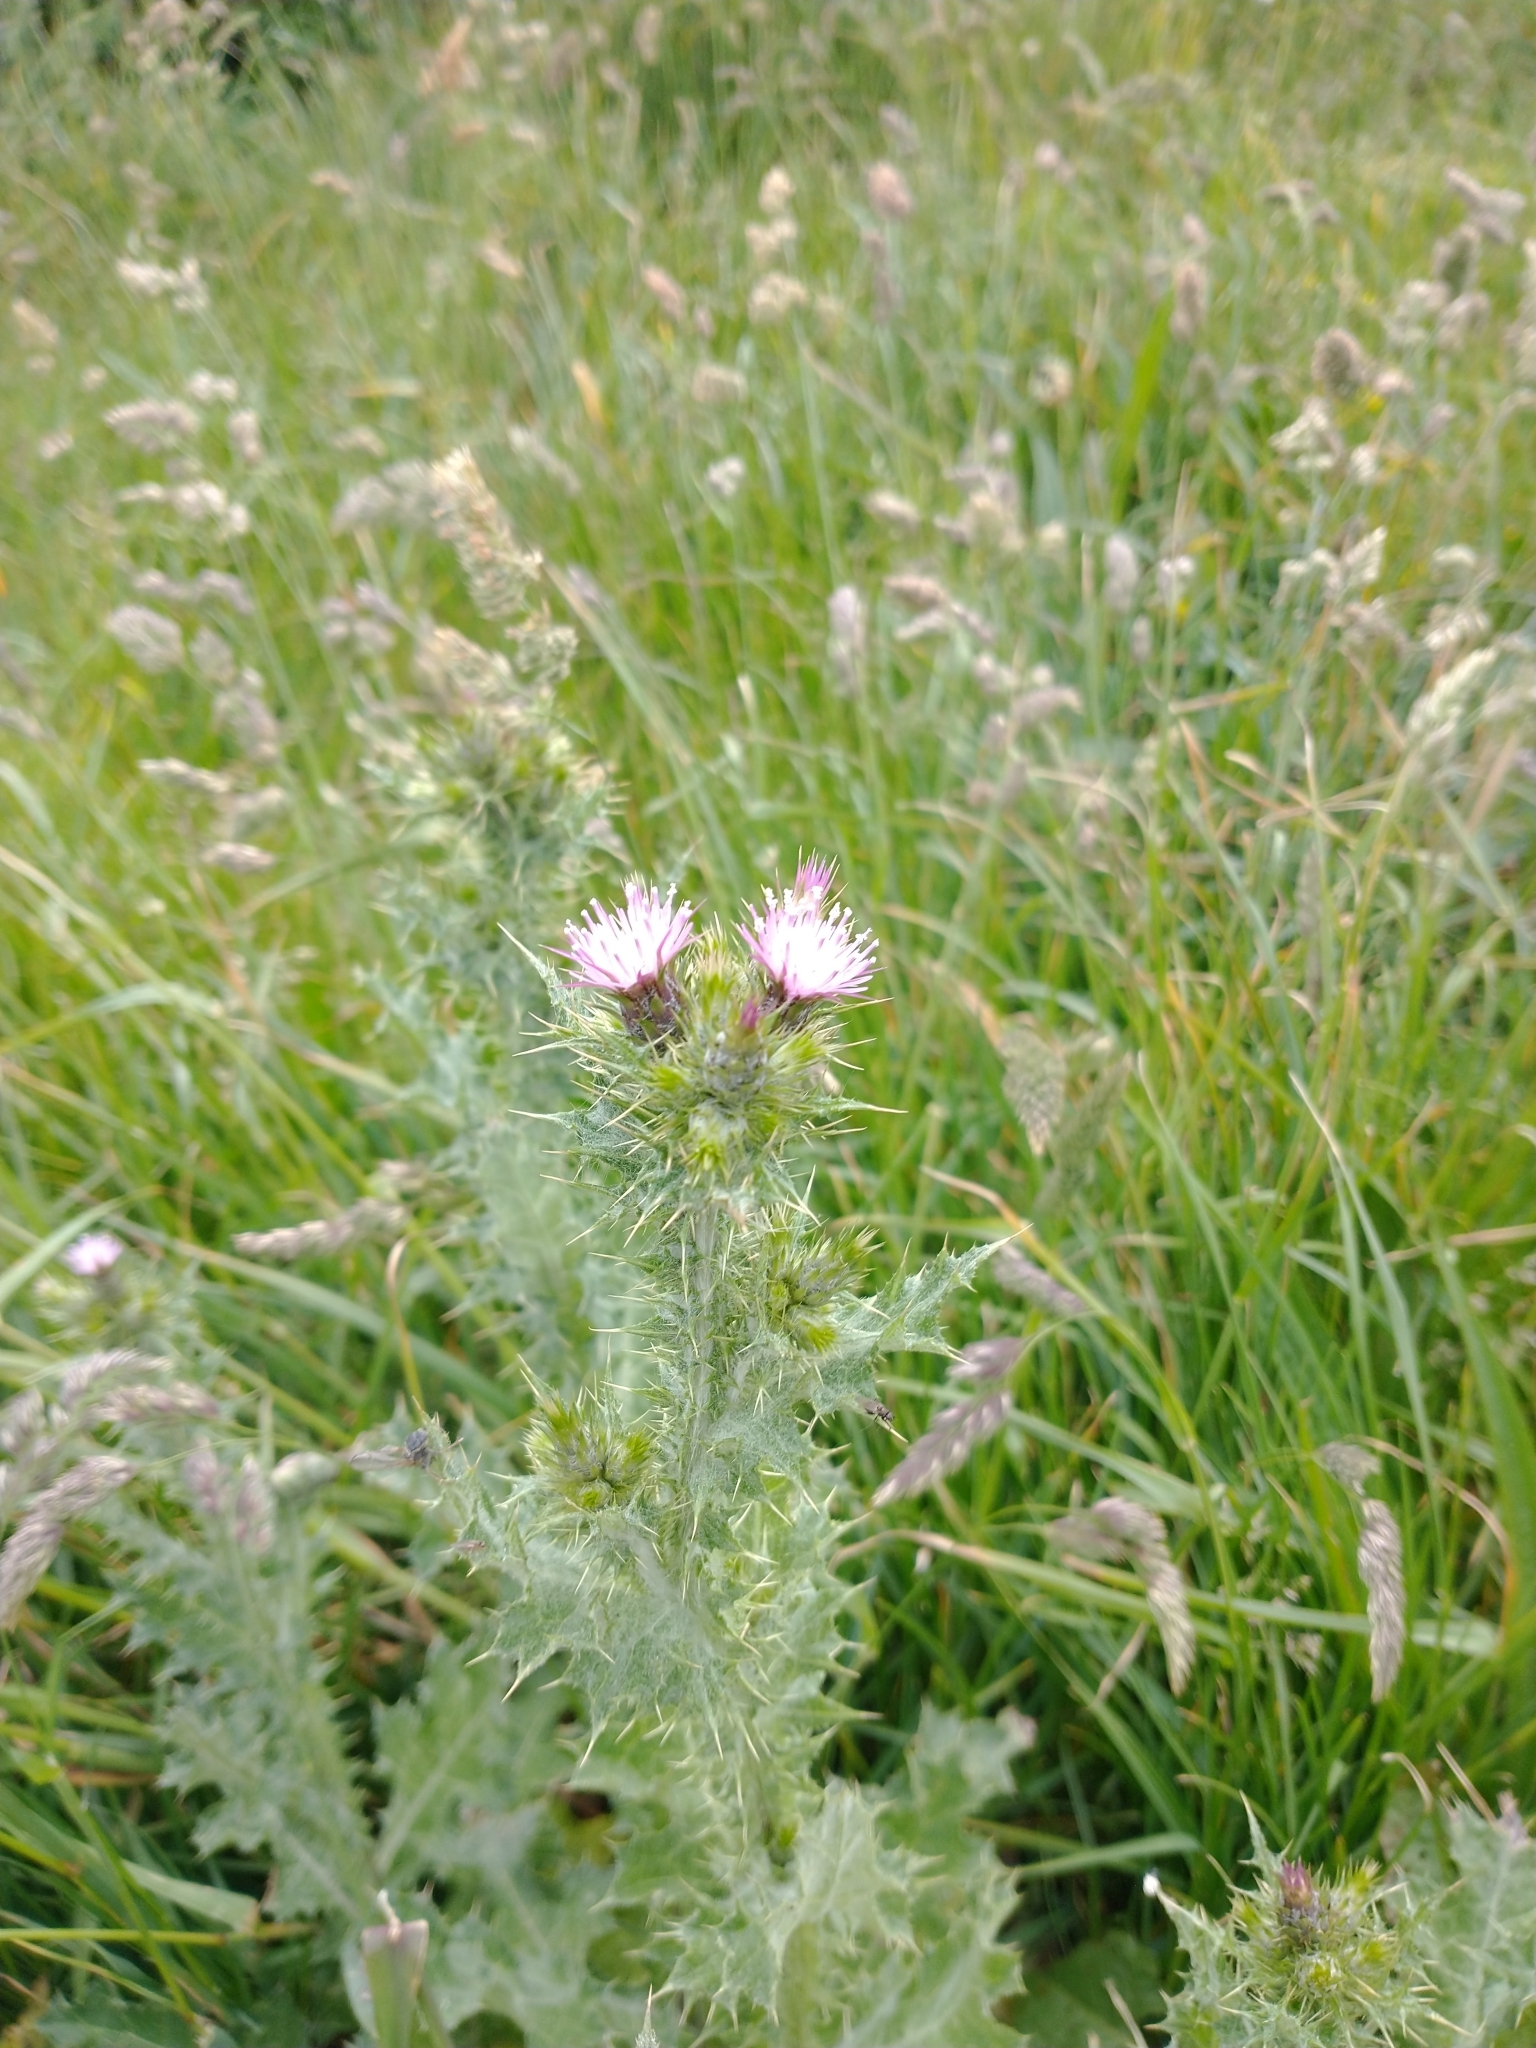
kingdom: Plantae
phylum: Tracheophyta
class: Magnoliopsida
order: Asterales
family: Asteraceae
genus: Carduus
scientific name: Carduus tenuiflorus
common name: Slender thistle
